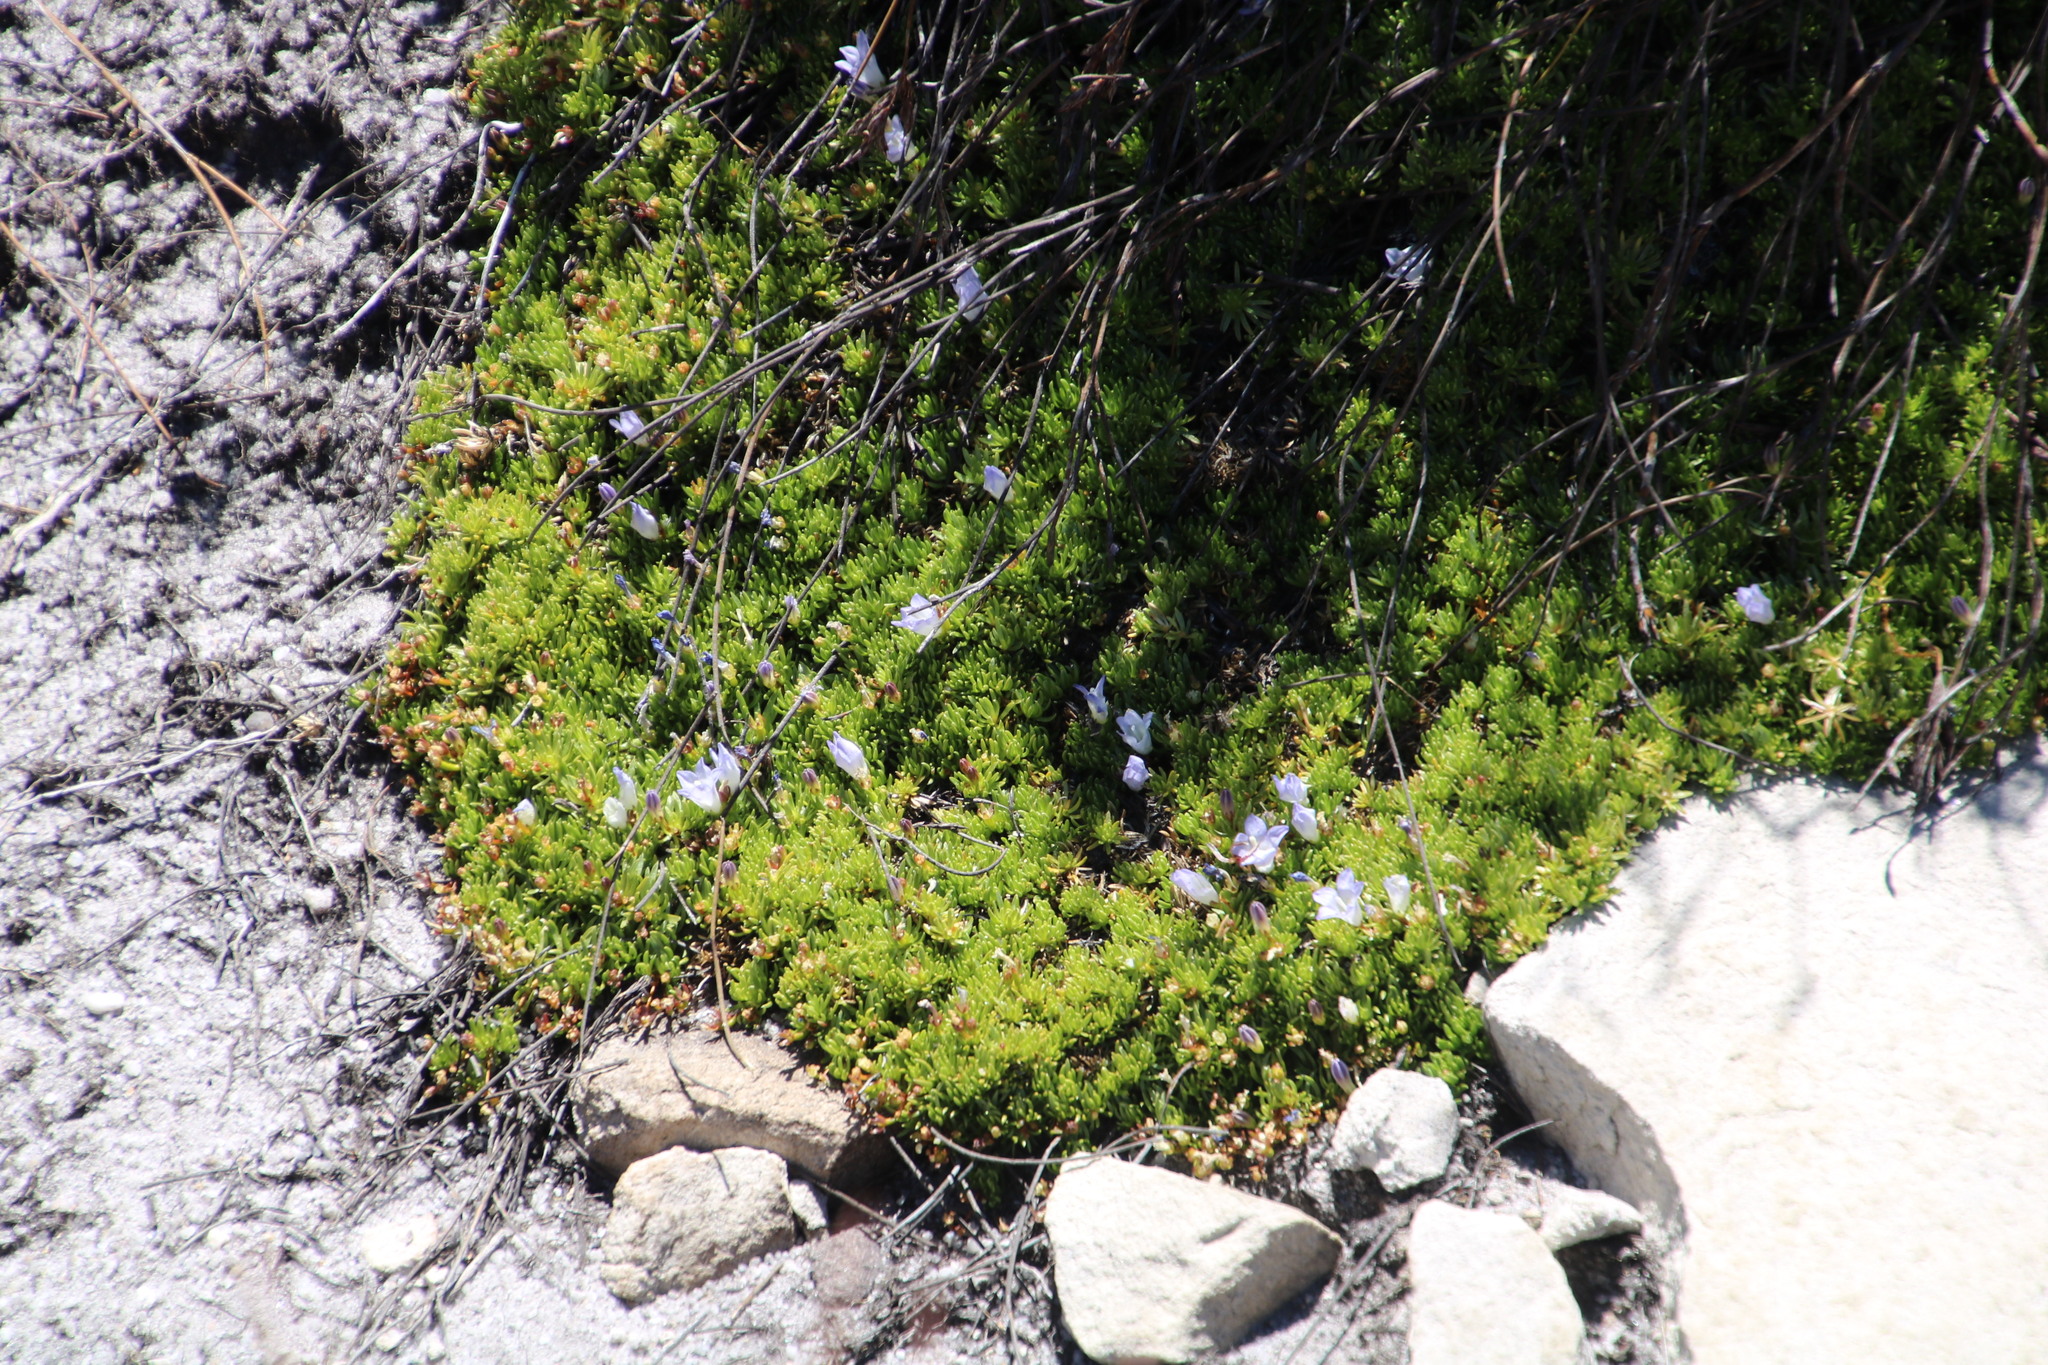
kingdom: Plantae
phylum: Tracheophyta
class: Magnoliopsida
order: Asterales
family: Campanulaceae
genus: Prismatocarpus
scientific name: Prismatocarpus alpinus
